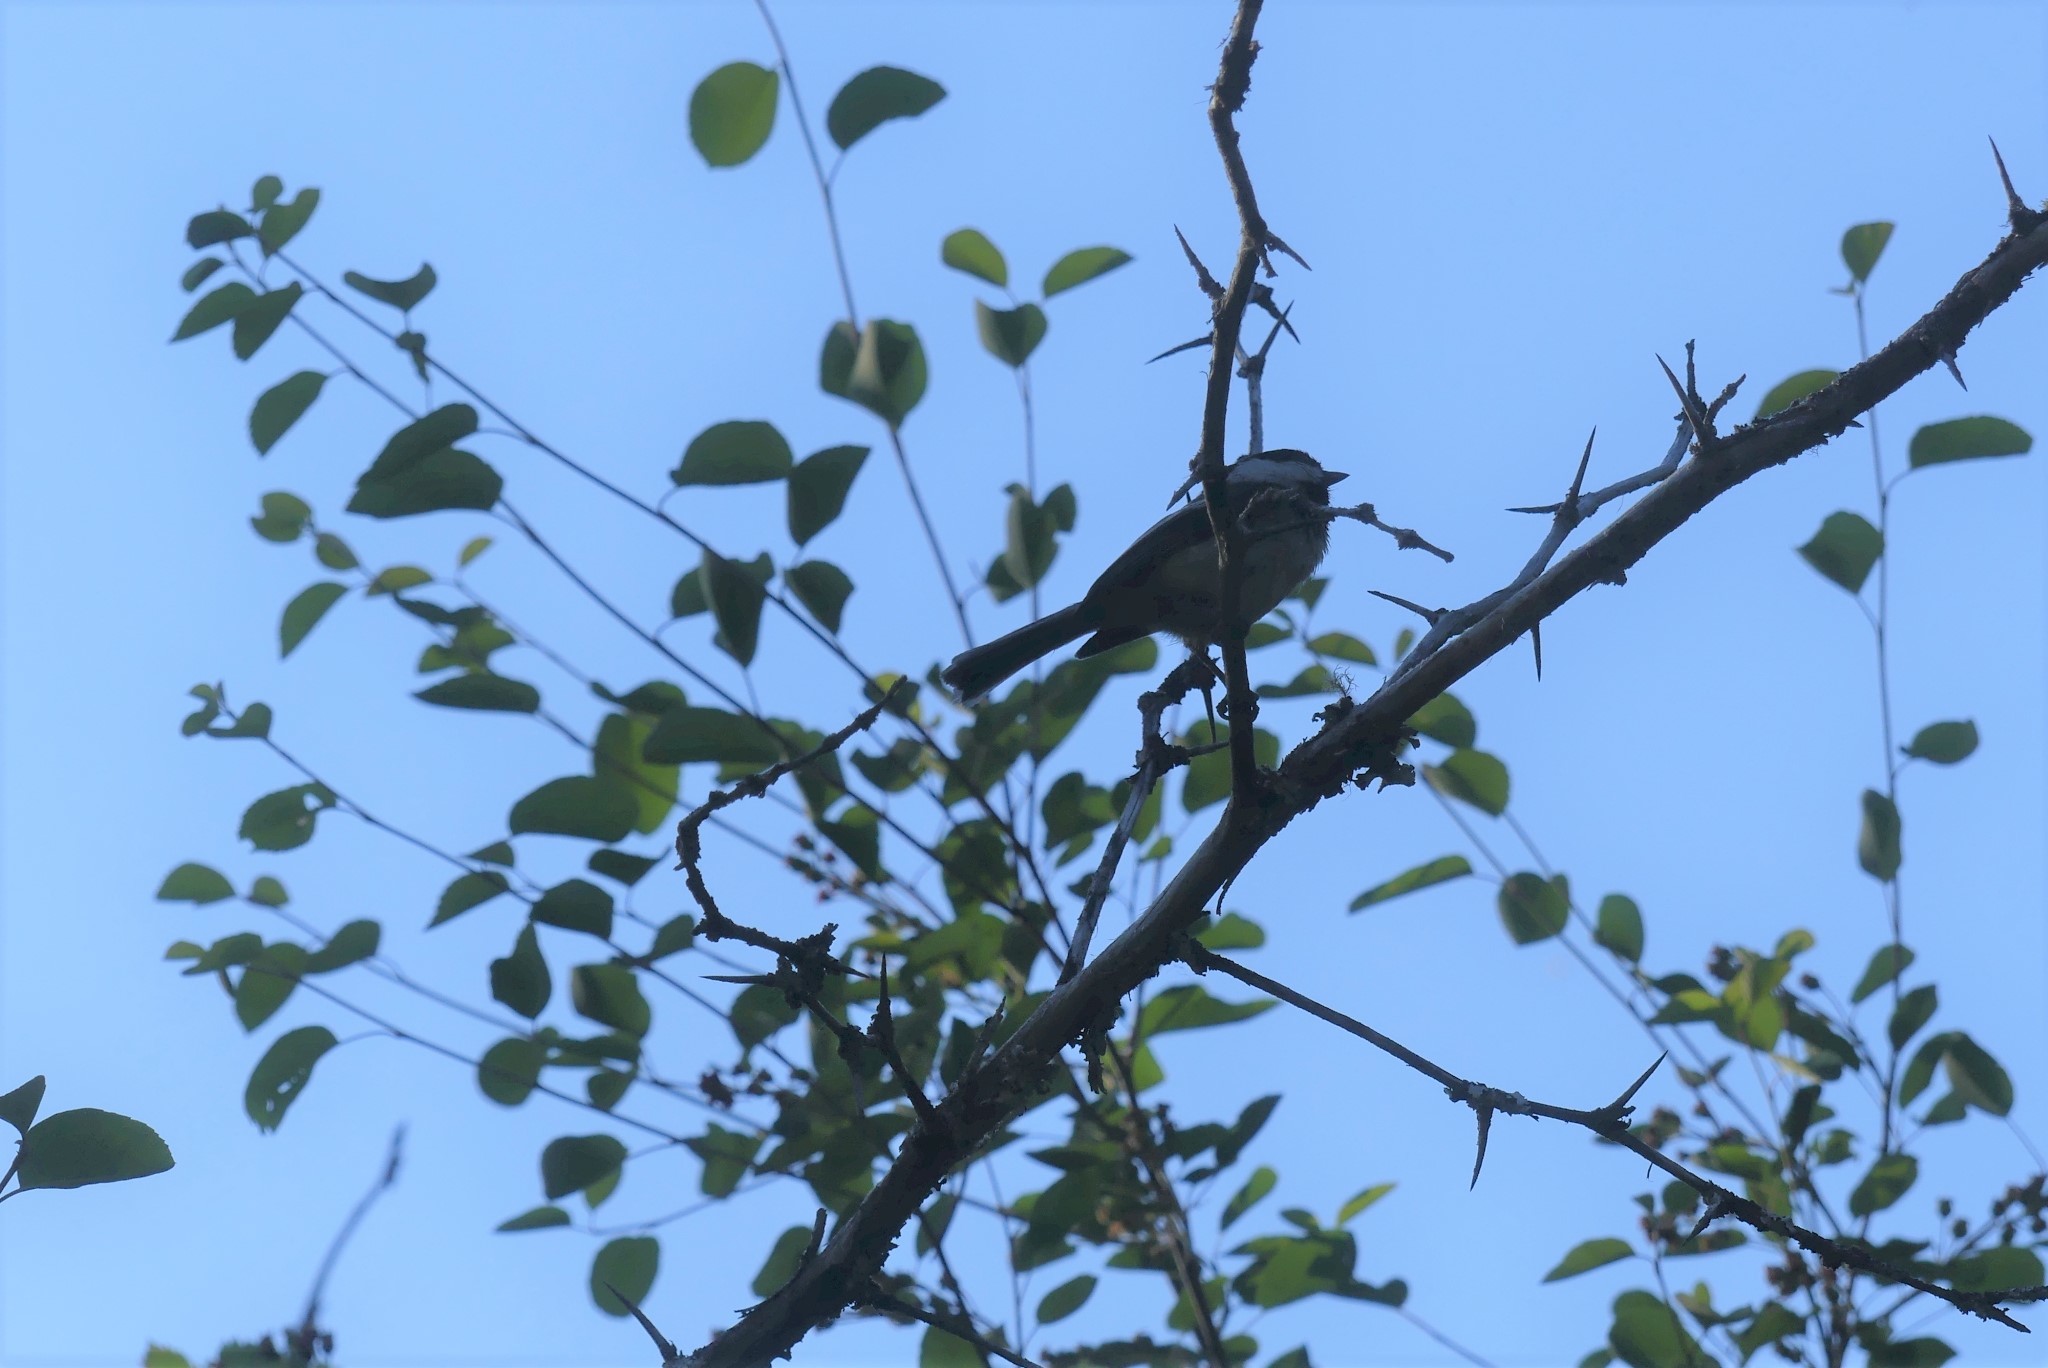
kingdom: Animalia
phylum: Chordata
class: Aves
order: Passeriformes
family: Paridae
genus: Poecile
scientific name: Poecile atricapillus
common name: Black-capped chickadee
